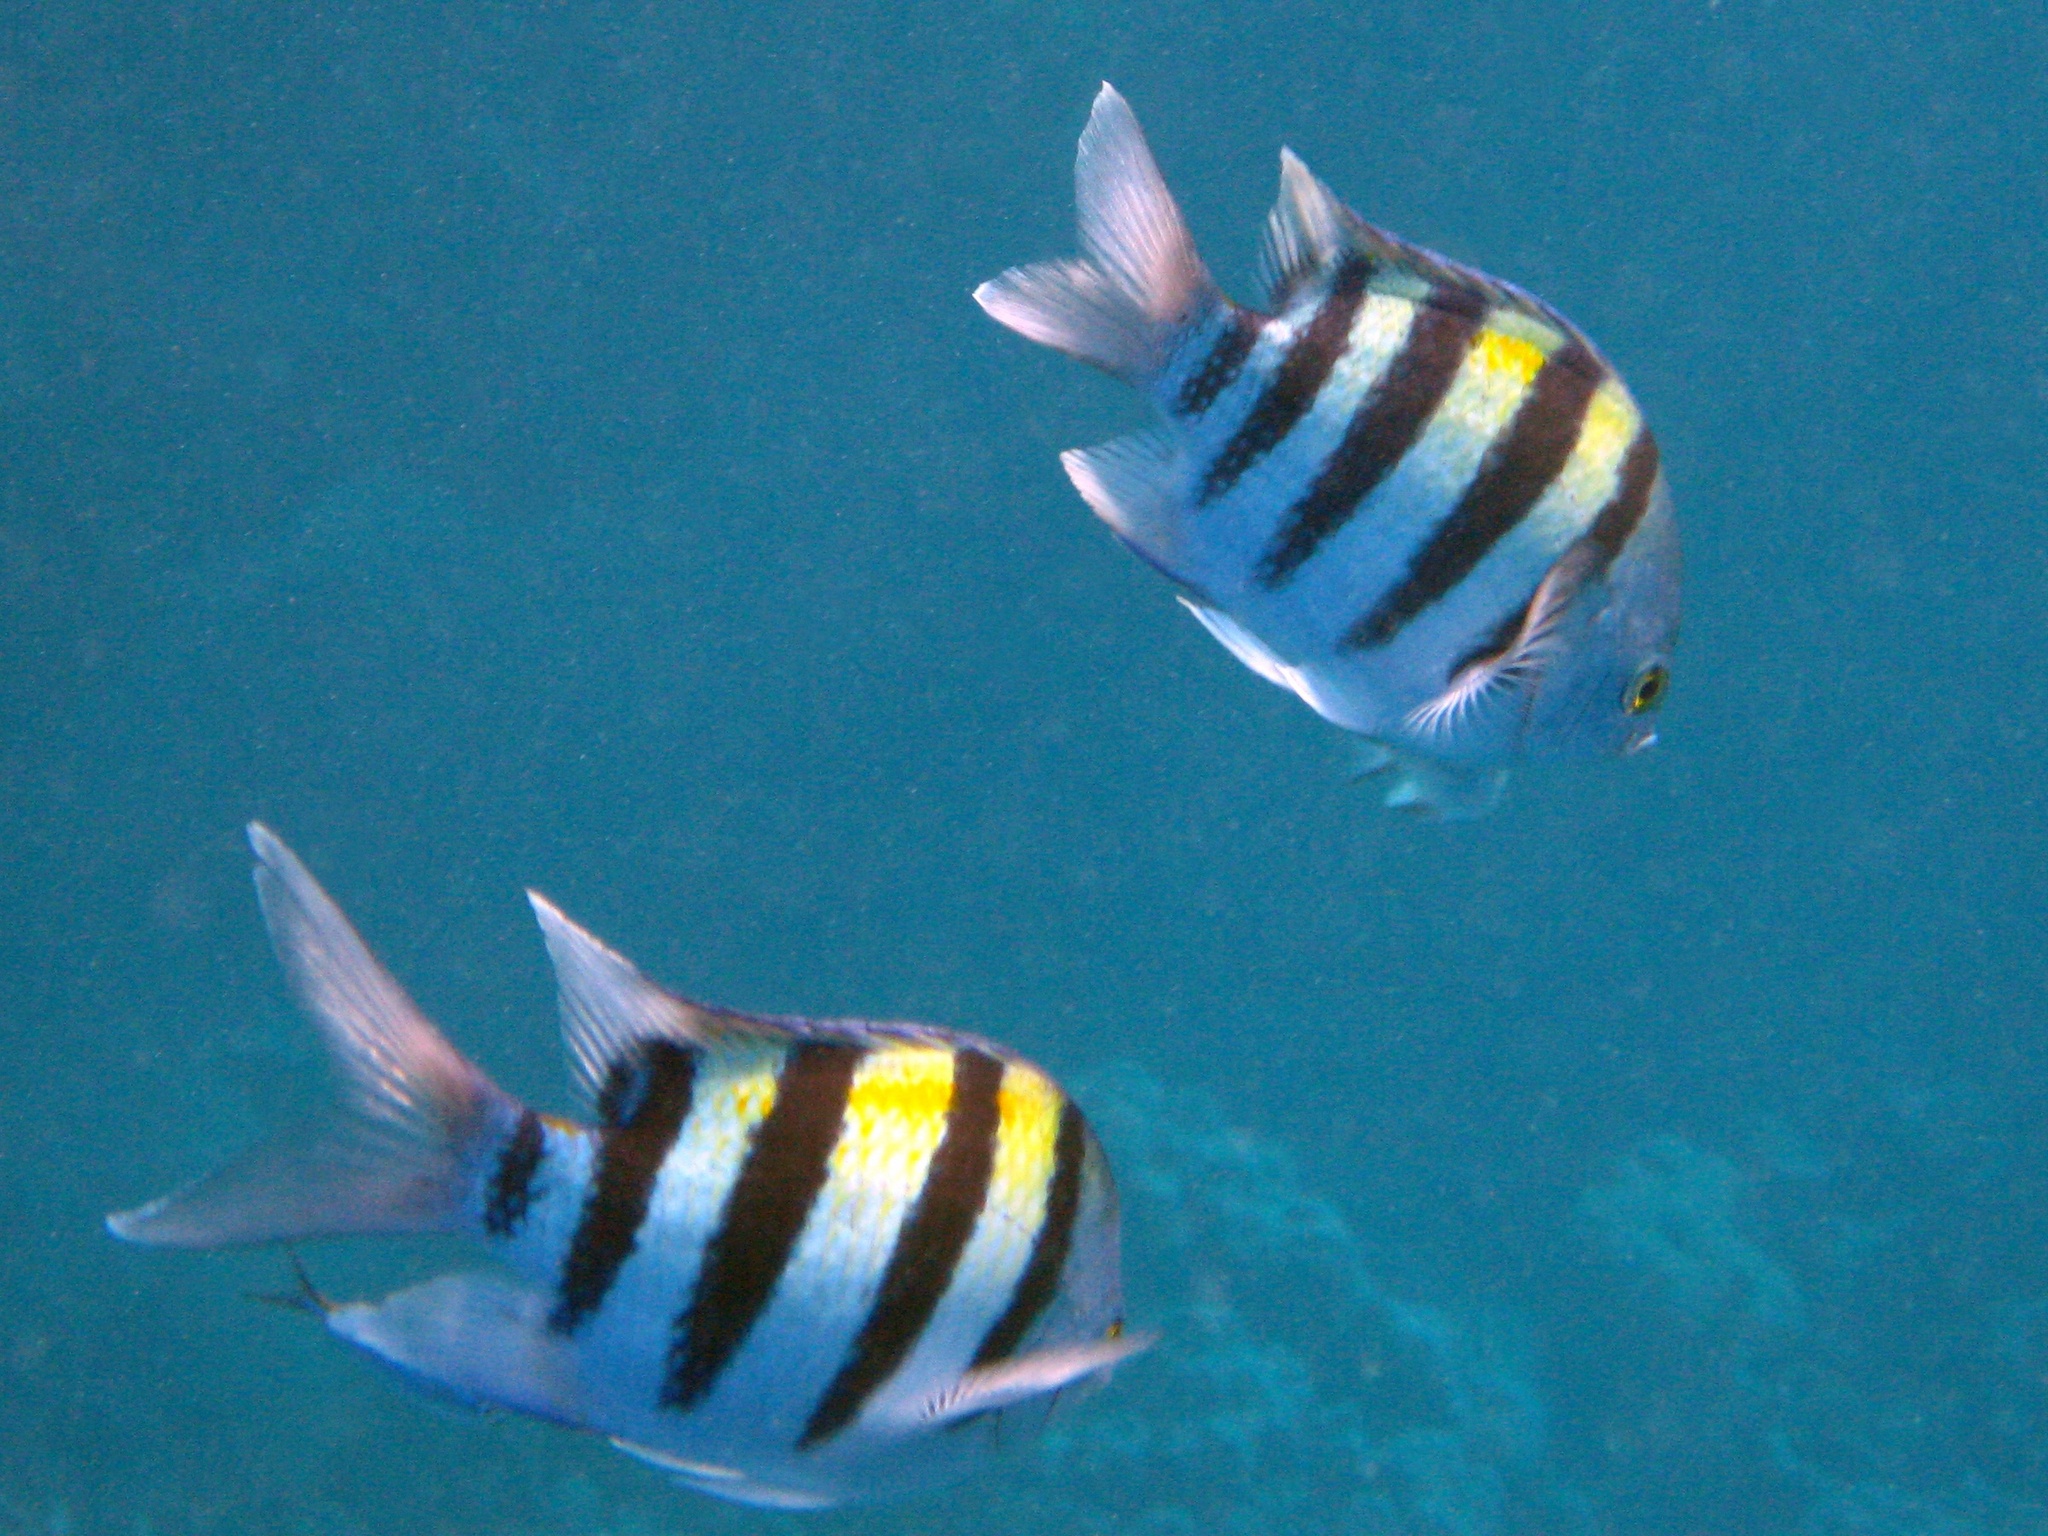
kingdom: Animalia
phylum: Chordata
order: Perciformes
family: Pomacentridae
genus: Abudefduf
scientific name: Abudefduf vaigiensis
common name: Indo-pacific sergeant
